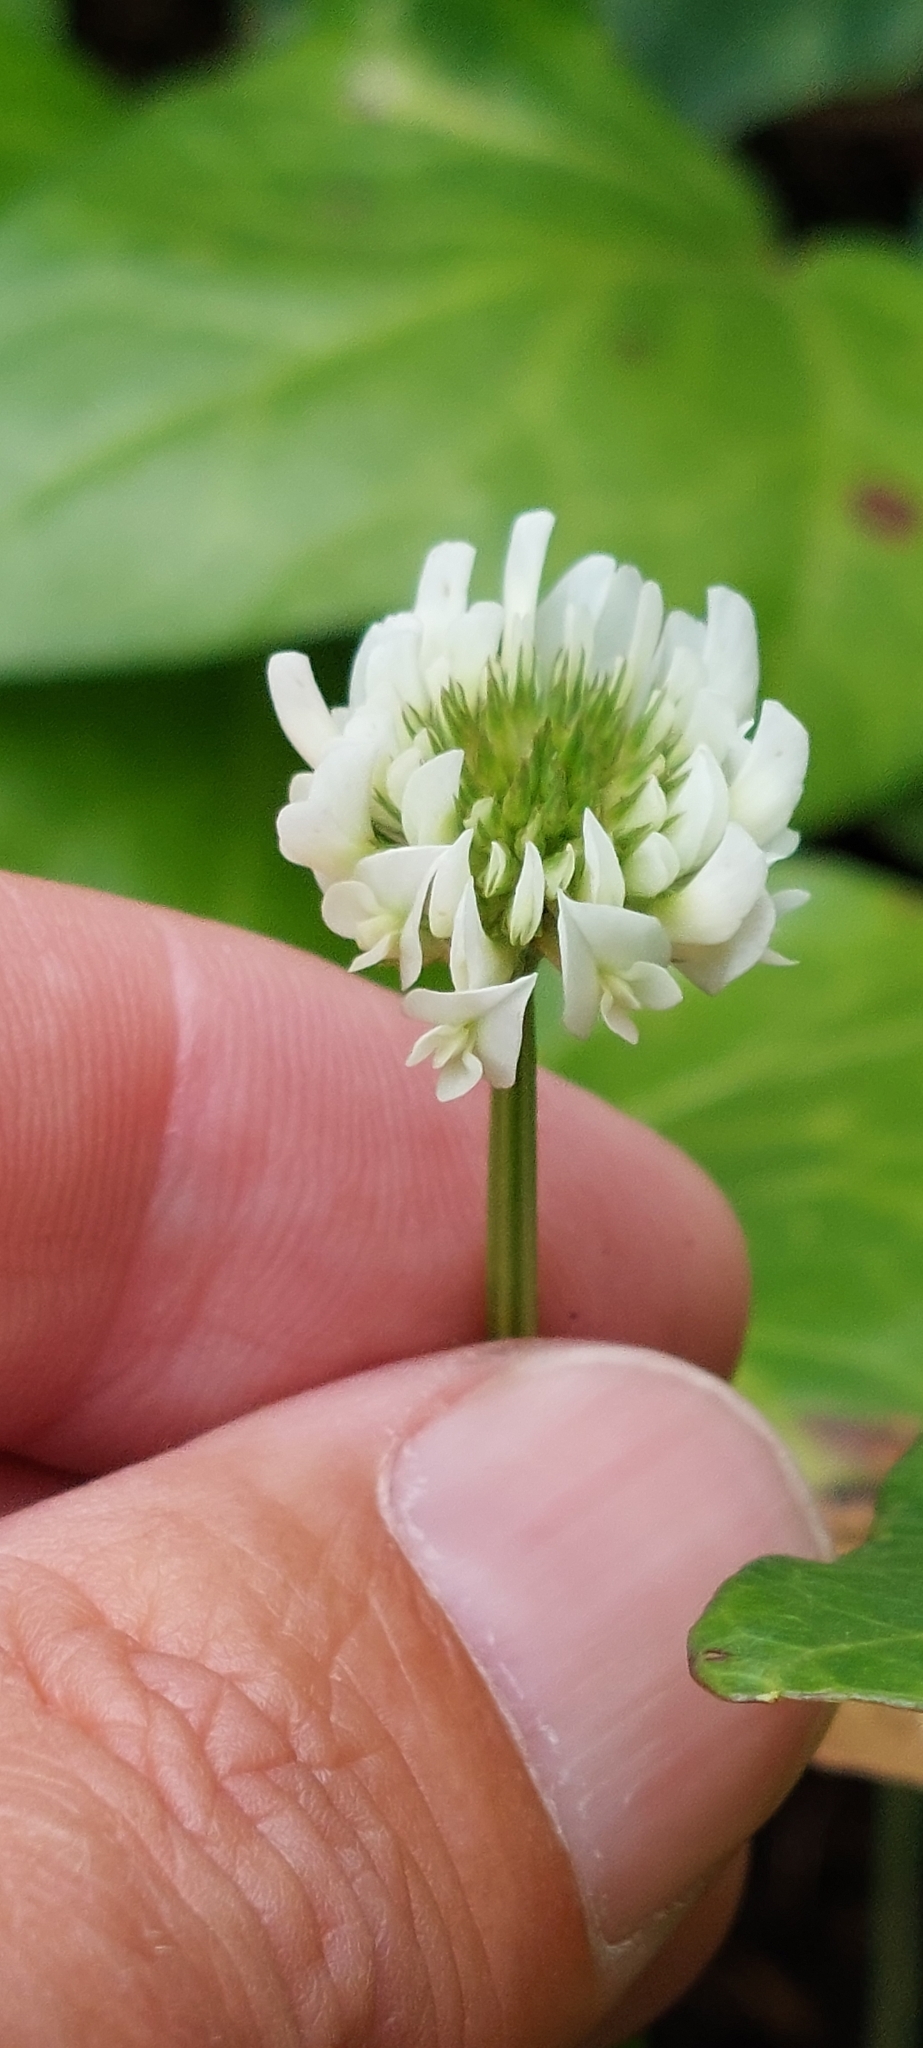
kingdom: Plantae
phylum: Tracheophyta
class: Magnoliopsida
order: Fabales
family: Fabaceae
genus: Trifolium
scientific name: Trifolium repens
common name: White clover
